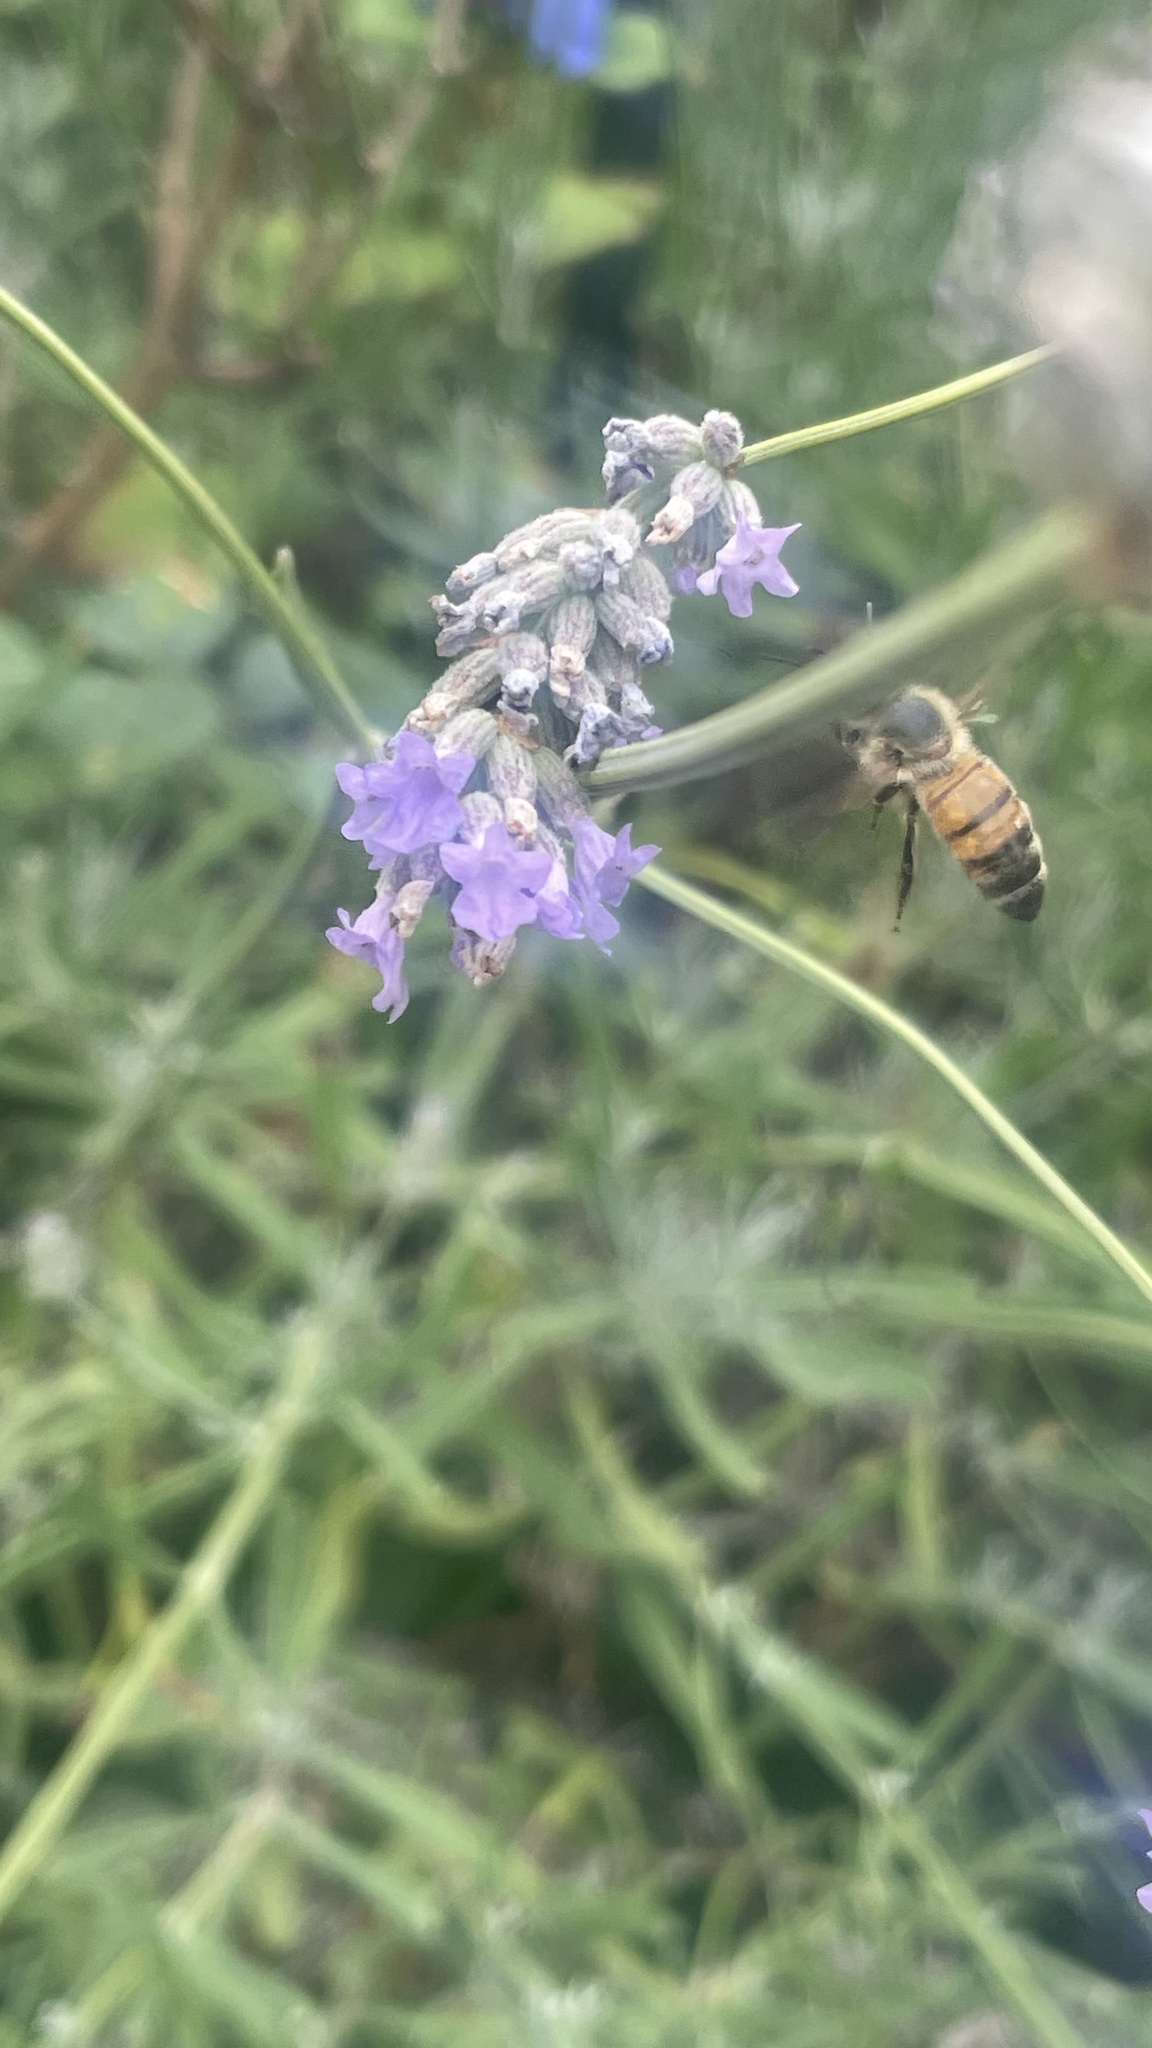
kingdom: Animalia
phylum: Arthropoda
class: Insecta
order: Hymenoptera
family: Apidae
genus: Apis
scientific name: Apis mellifera
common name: Honey bee
